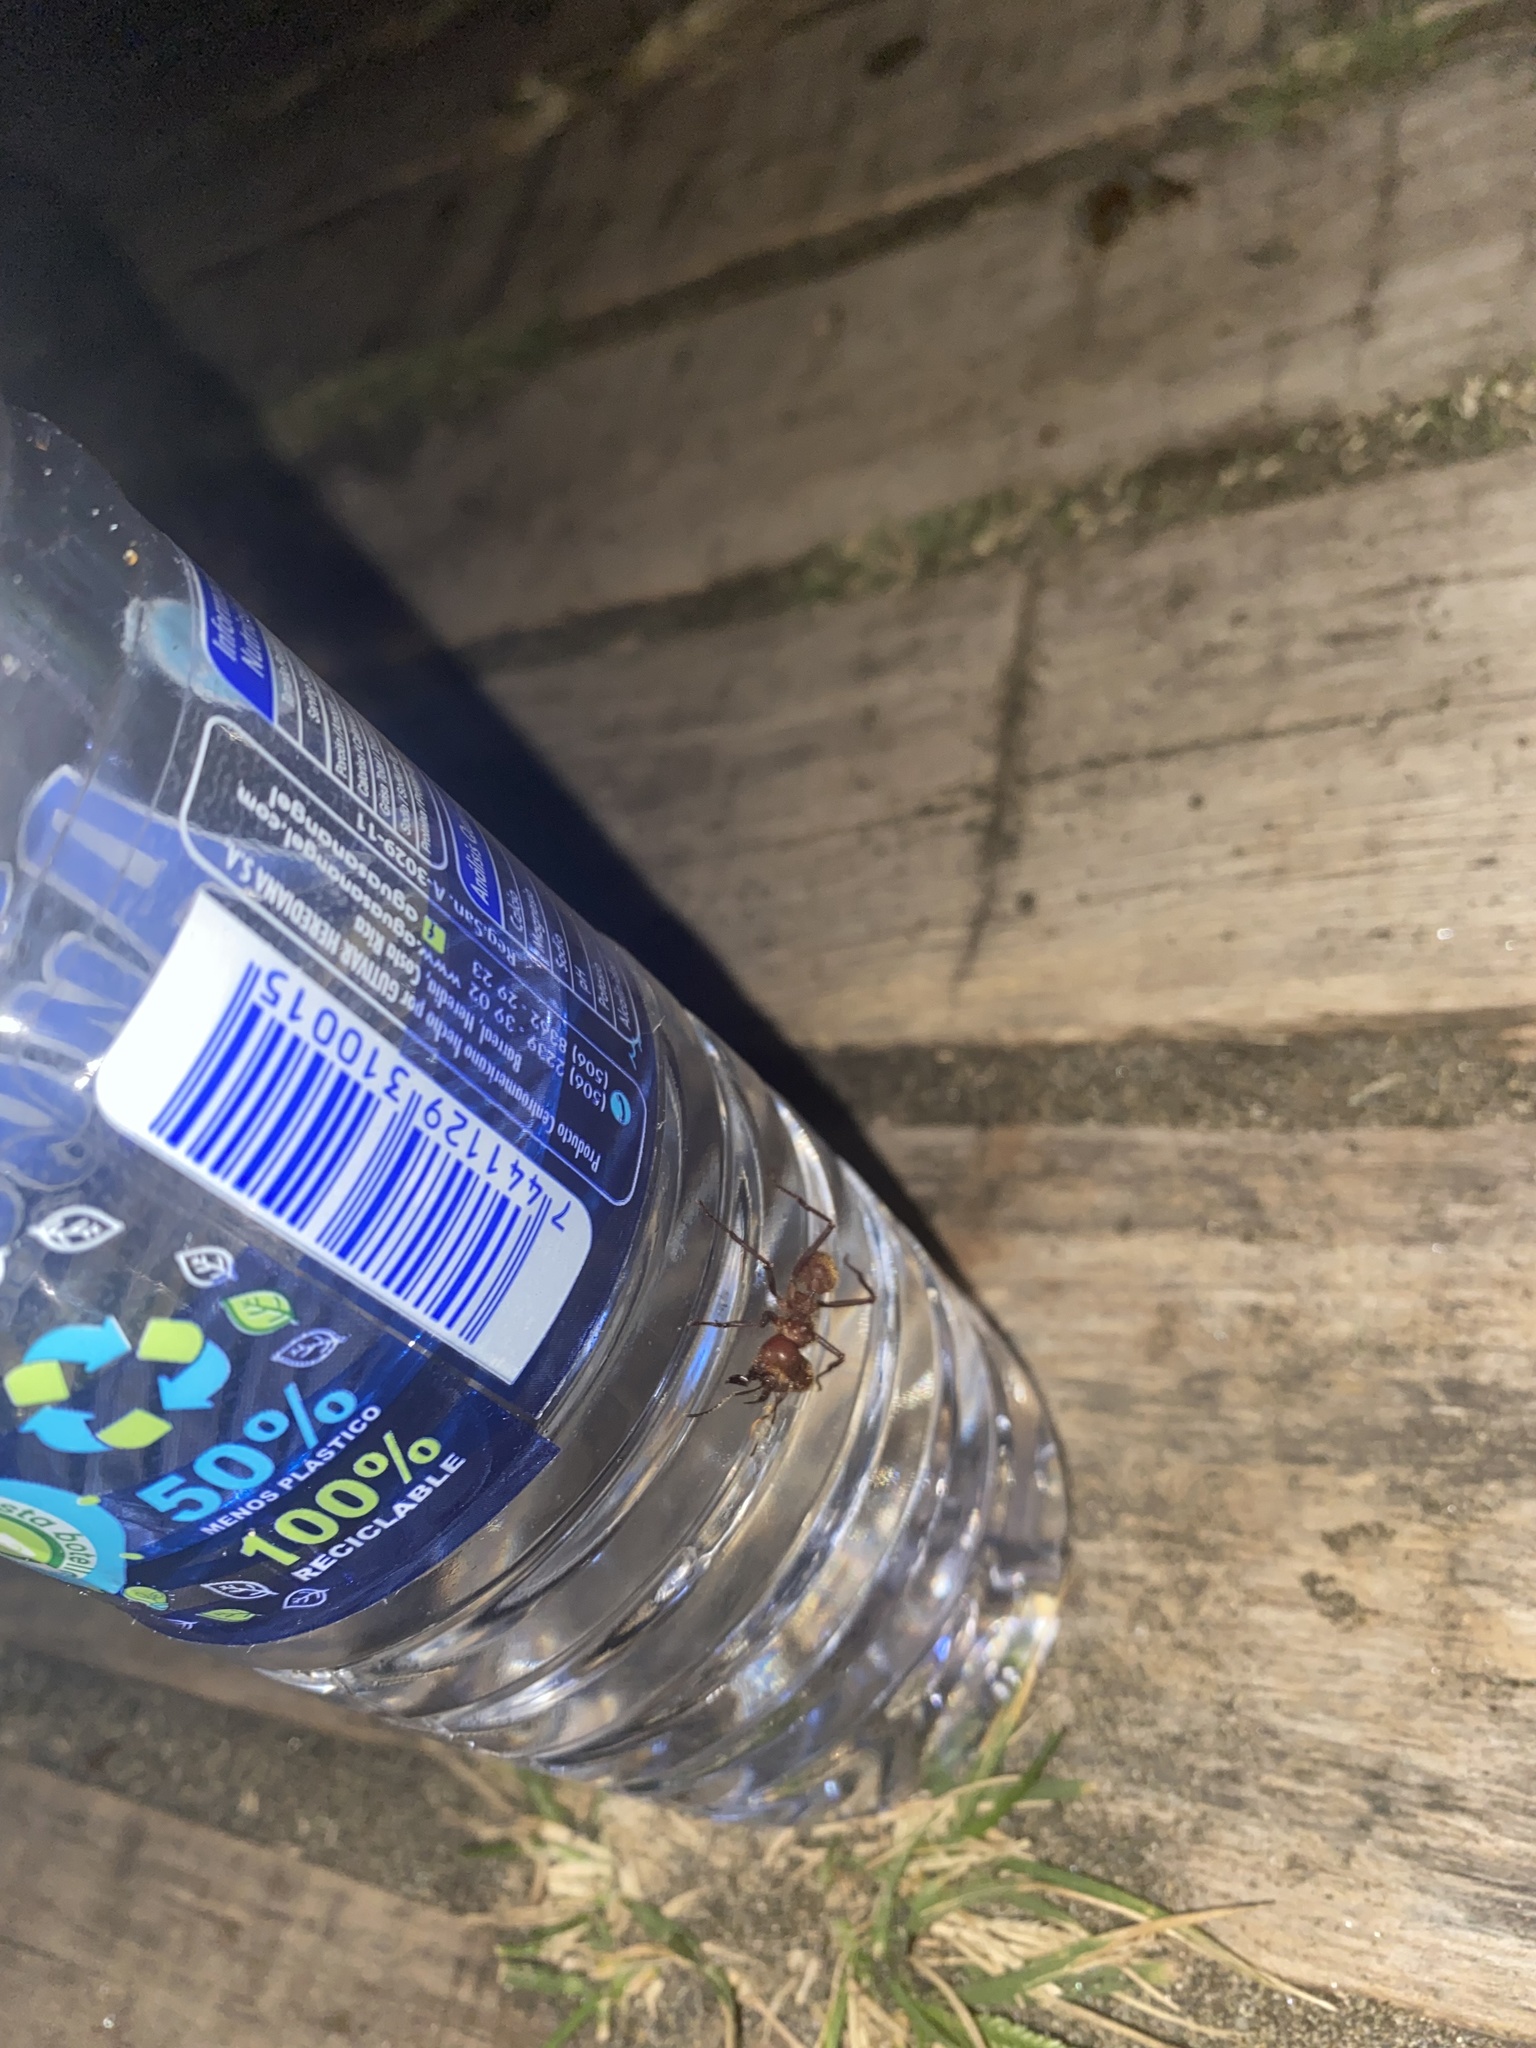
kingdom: Animalia
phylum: Arthropoda
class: Insecta
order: Hymenoptera
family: Formicidae
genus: Atta
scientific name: Atta cephalotes
